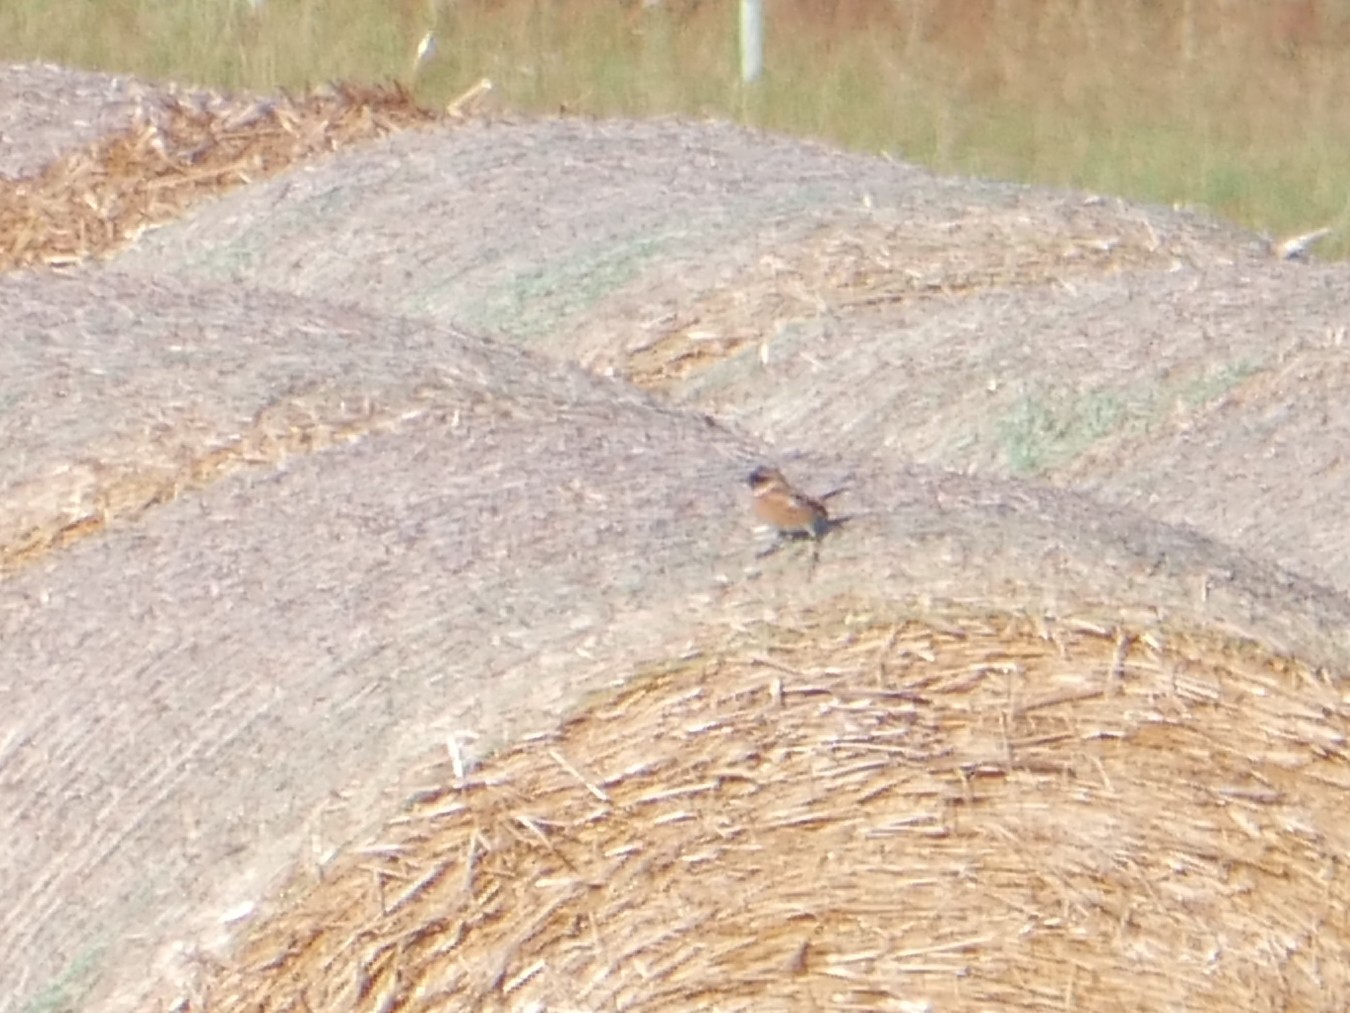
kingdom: Animalia
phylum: Chordata
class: Aves
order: Passeriformes
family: Muscicapidae
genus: Saxicola
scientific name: Saxicola rubicola
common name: European stonechat
